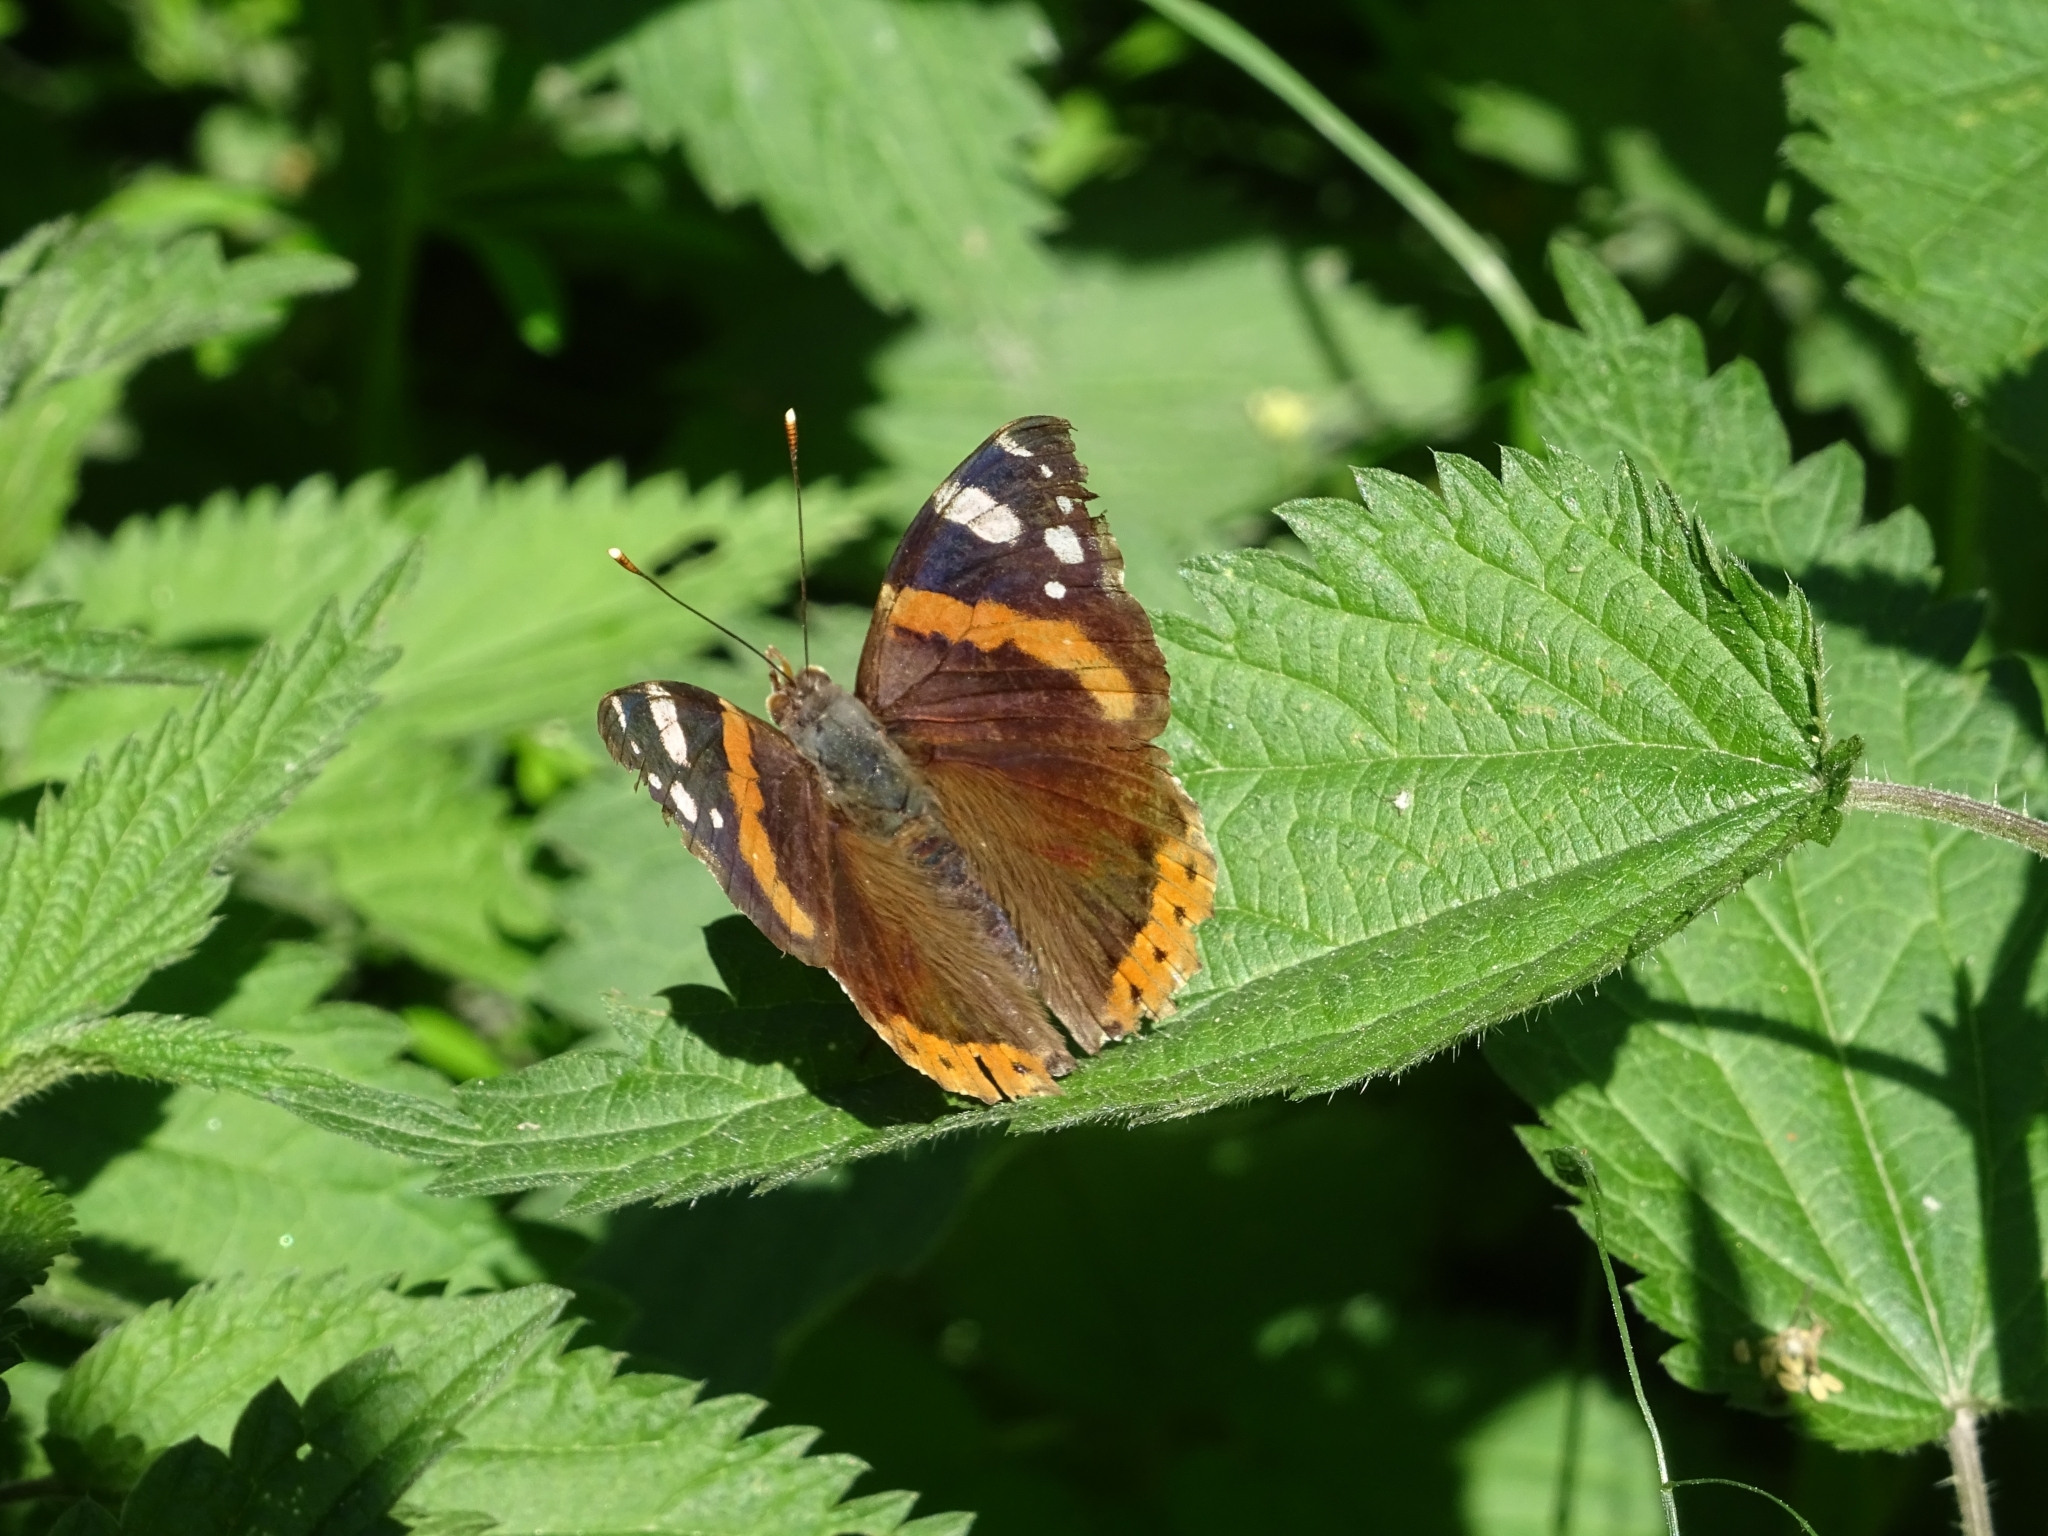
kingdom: Animalia
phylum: Arthropoda
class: Insecta
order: Lepidoptera
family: Nymphalidae
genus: Vanessa
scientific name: Vanessa atalanta
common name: Red admiral
